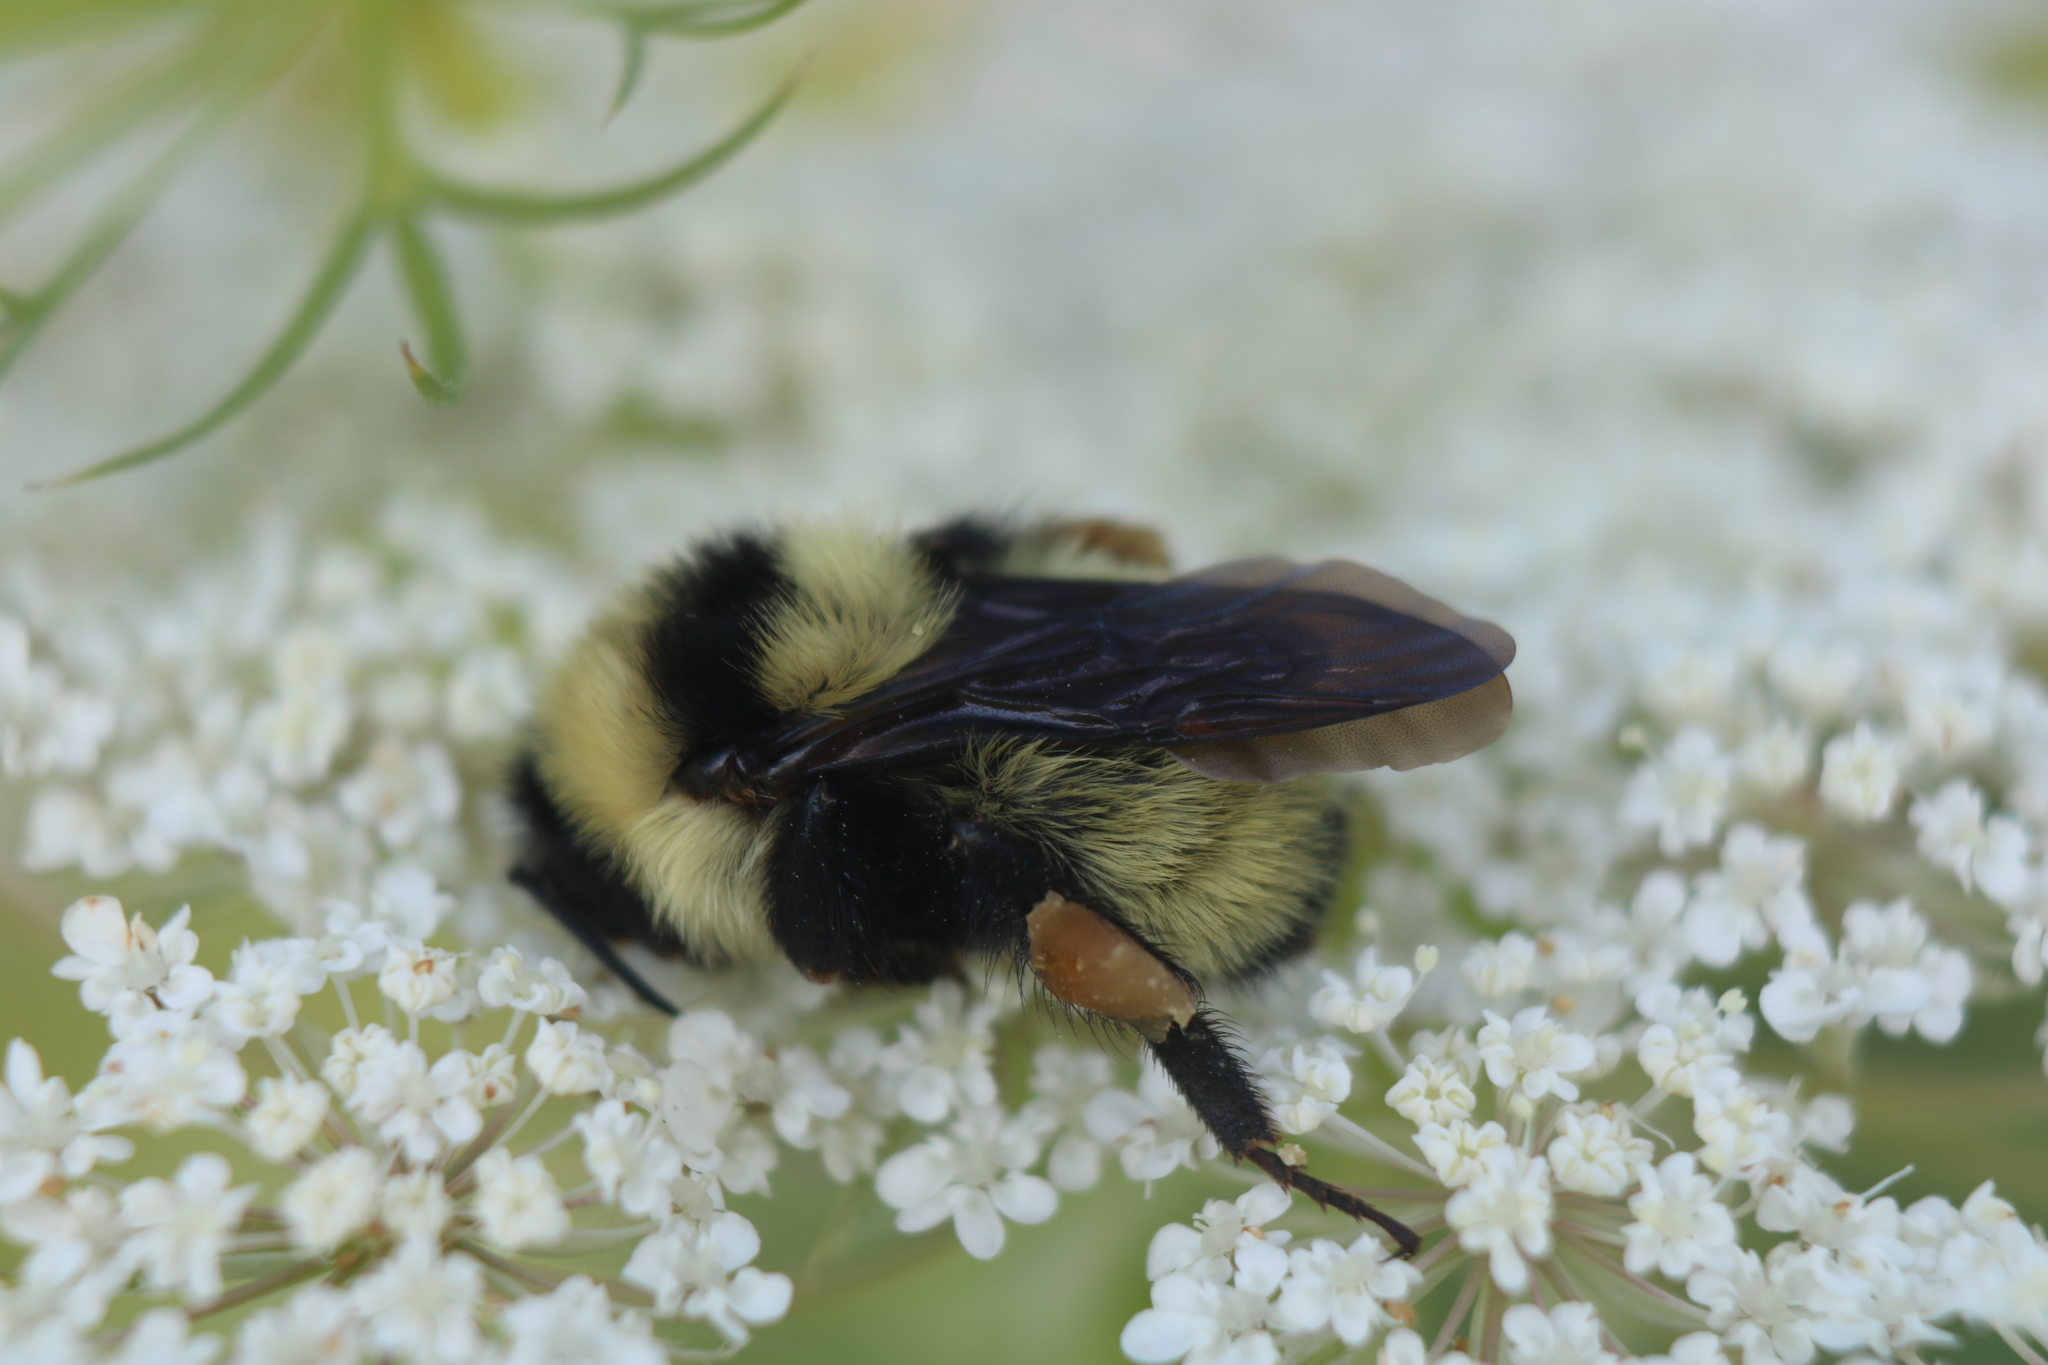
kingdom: Animalia
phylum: Arthropoda
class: Insecta
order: Hymenoptera
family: Apidae
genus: Bombus
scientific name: Bombus fervidus
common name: Yellow bumble bee
